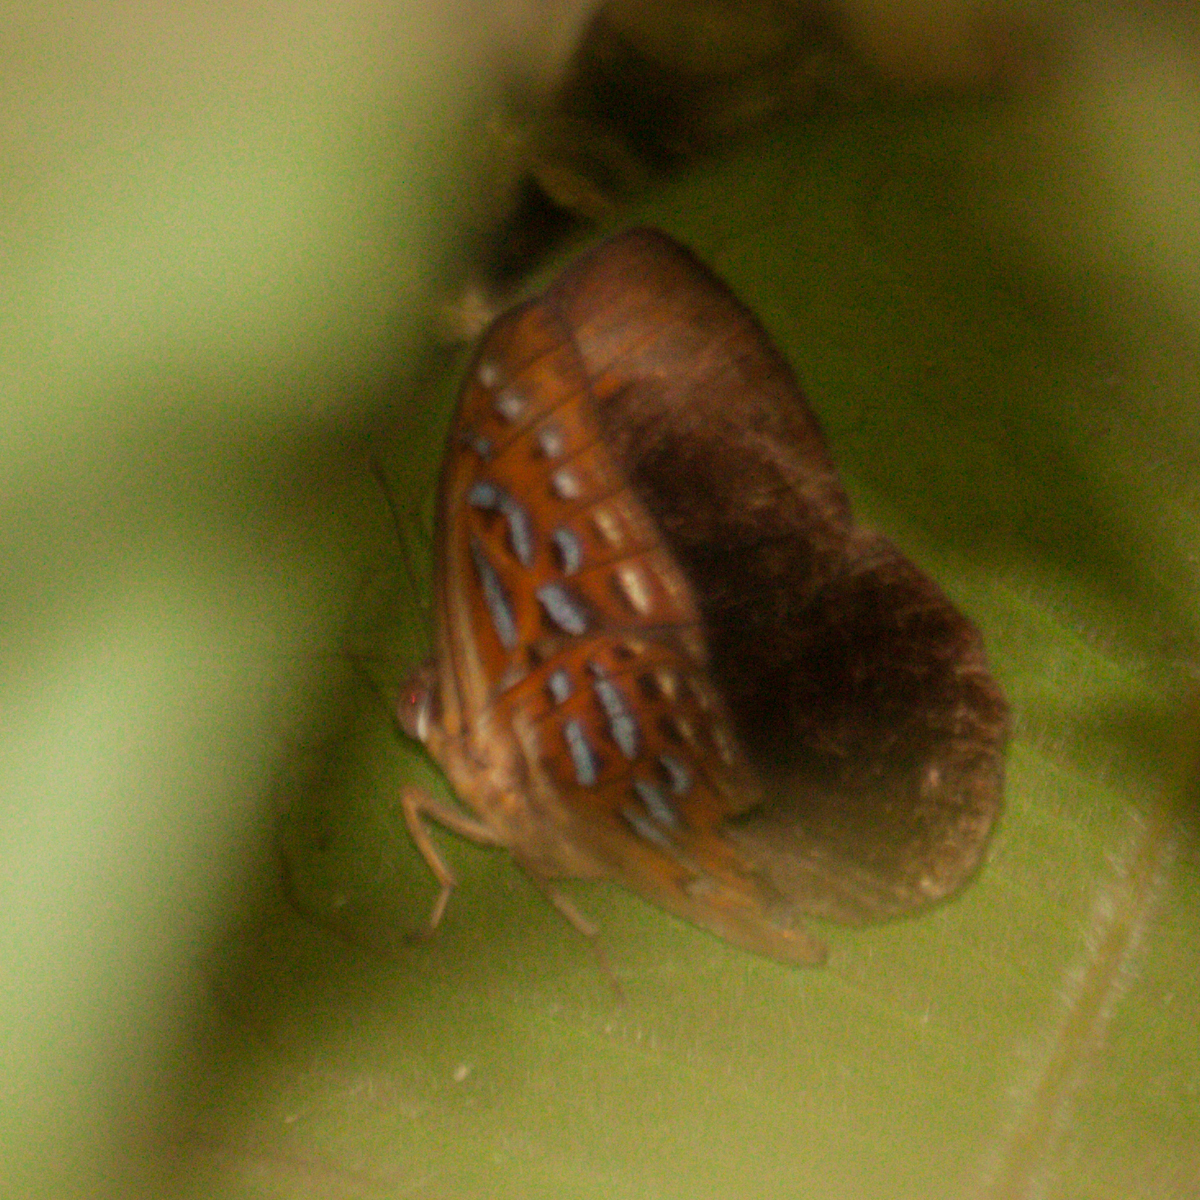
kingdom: Animalia
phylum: Arthropoda
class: Insecta
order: Lepidoptera
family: Erebidae
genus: Dysschema
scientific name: Dysschema
